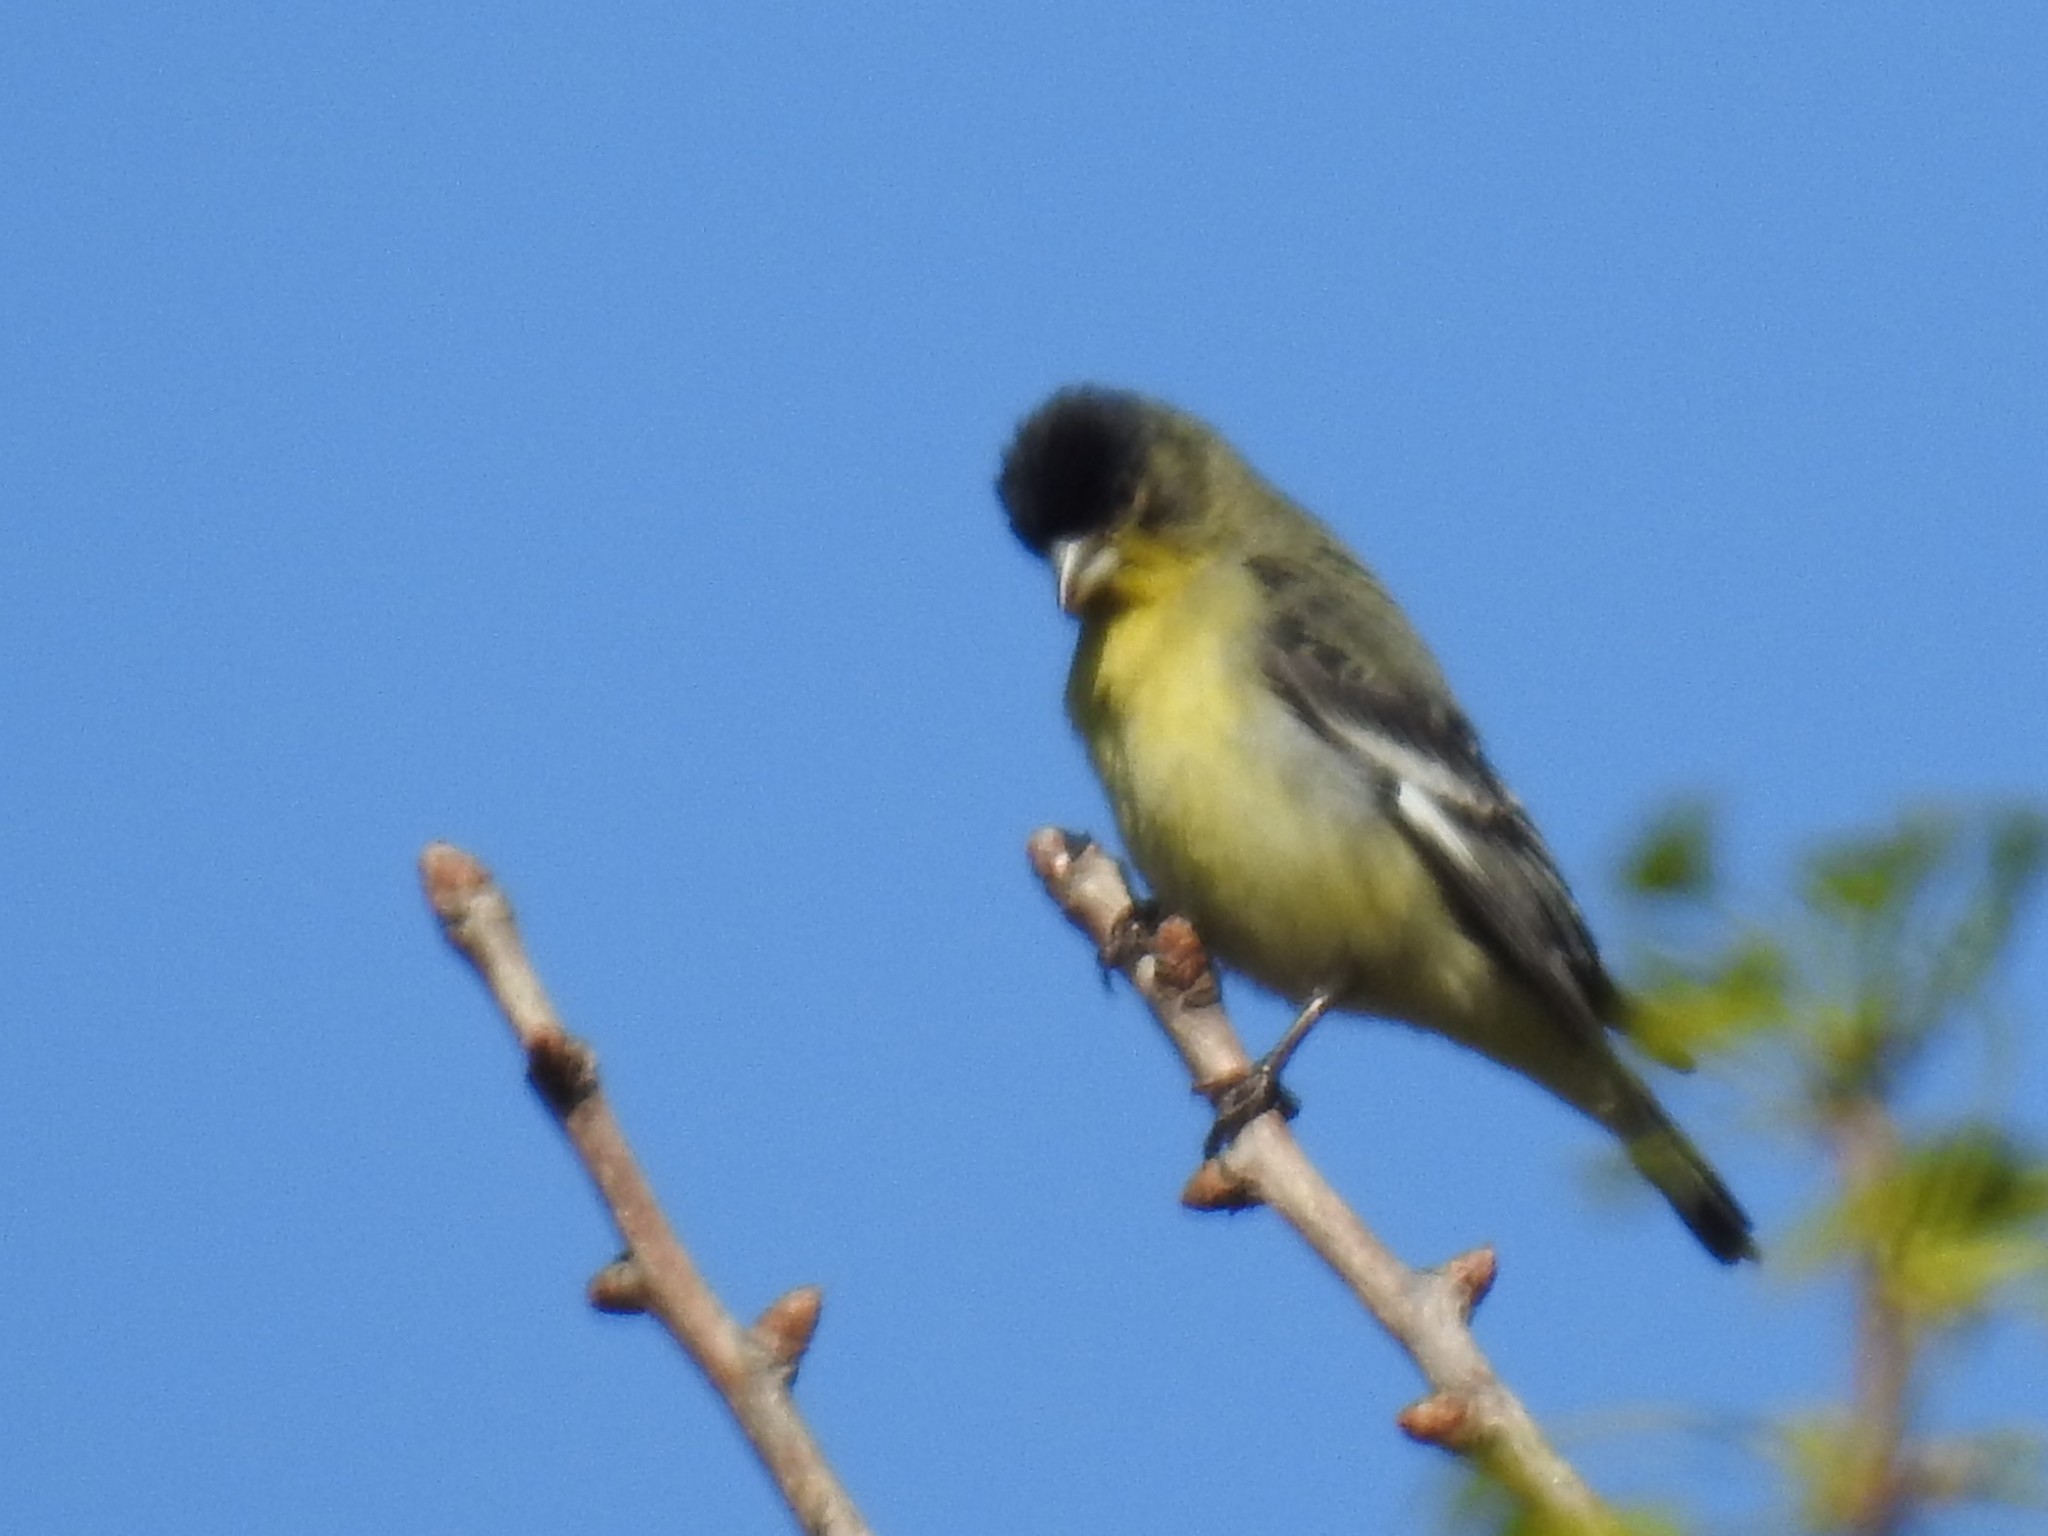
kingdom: Animalia
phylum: Chordata
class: Aves
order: Passeriformes
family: Fringillidae
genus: Spinus
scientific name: Spinus psaltria
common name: Lesser goldfinch
